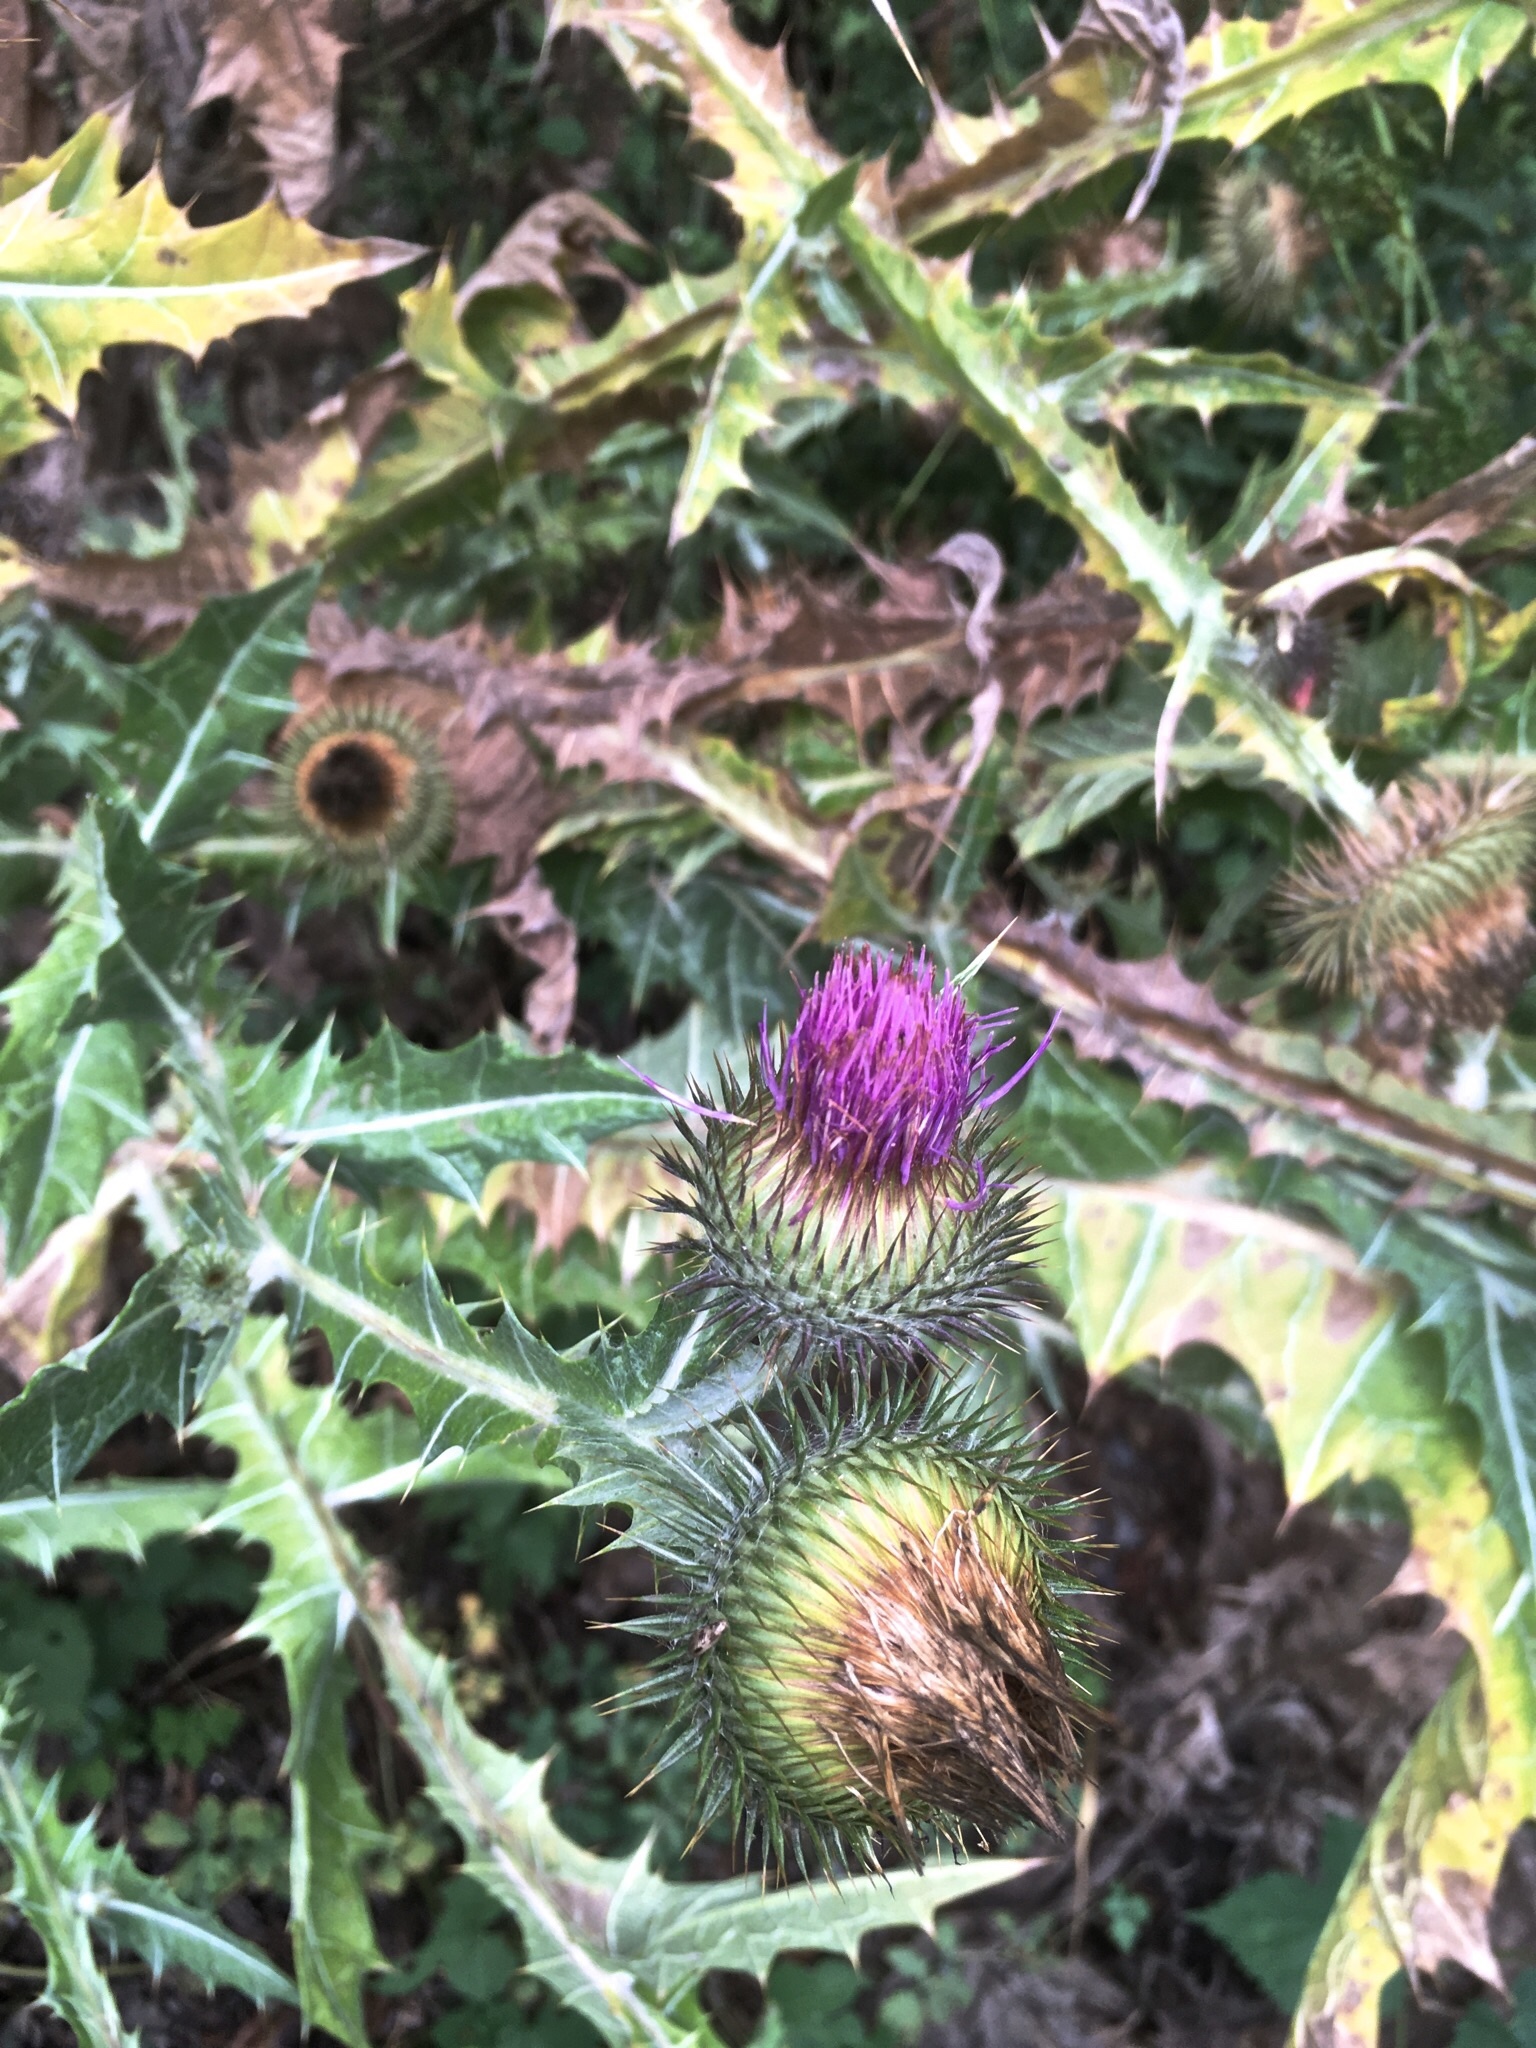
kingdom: Plantae
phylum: Tracheophyta
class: Magnoliopsida
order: Asterales
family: Asteraceae
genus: Onopordum
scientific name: Onopordum acanthium
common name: Scotch thistle
